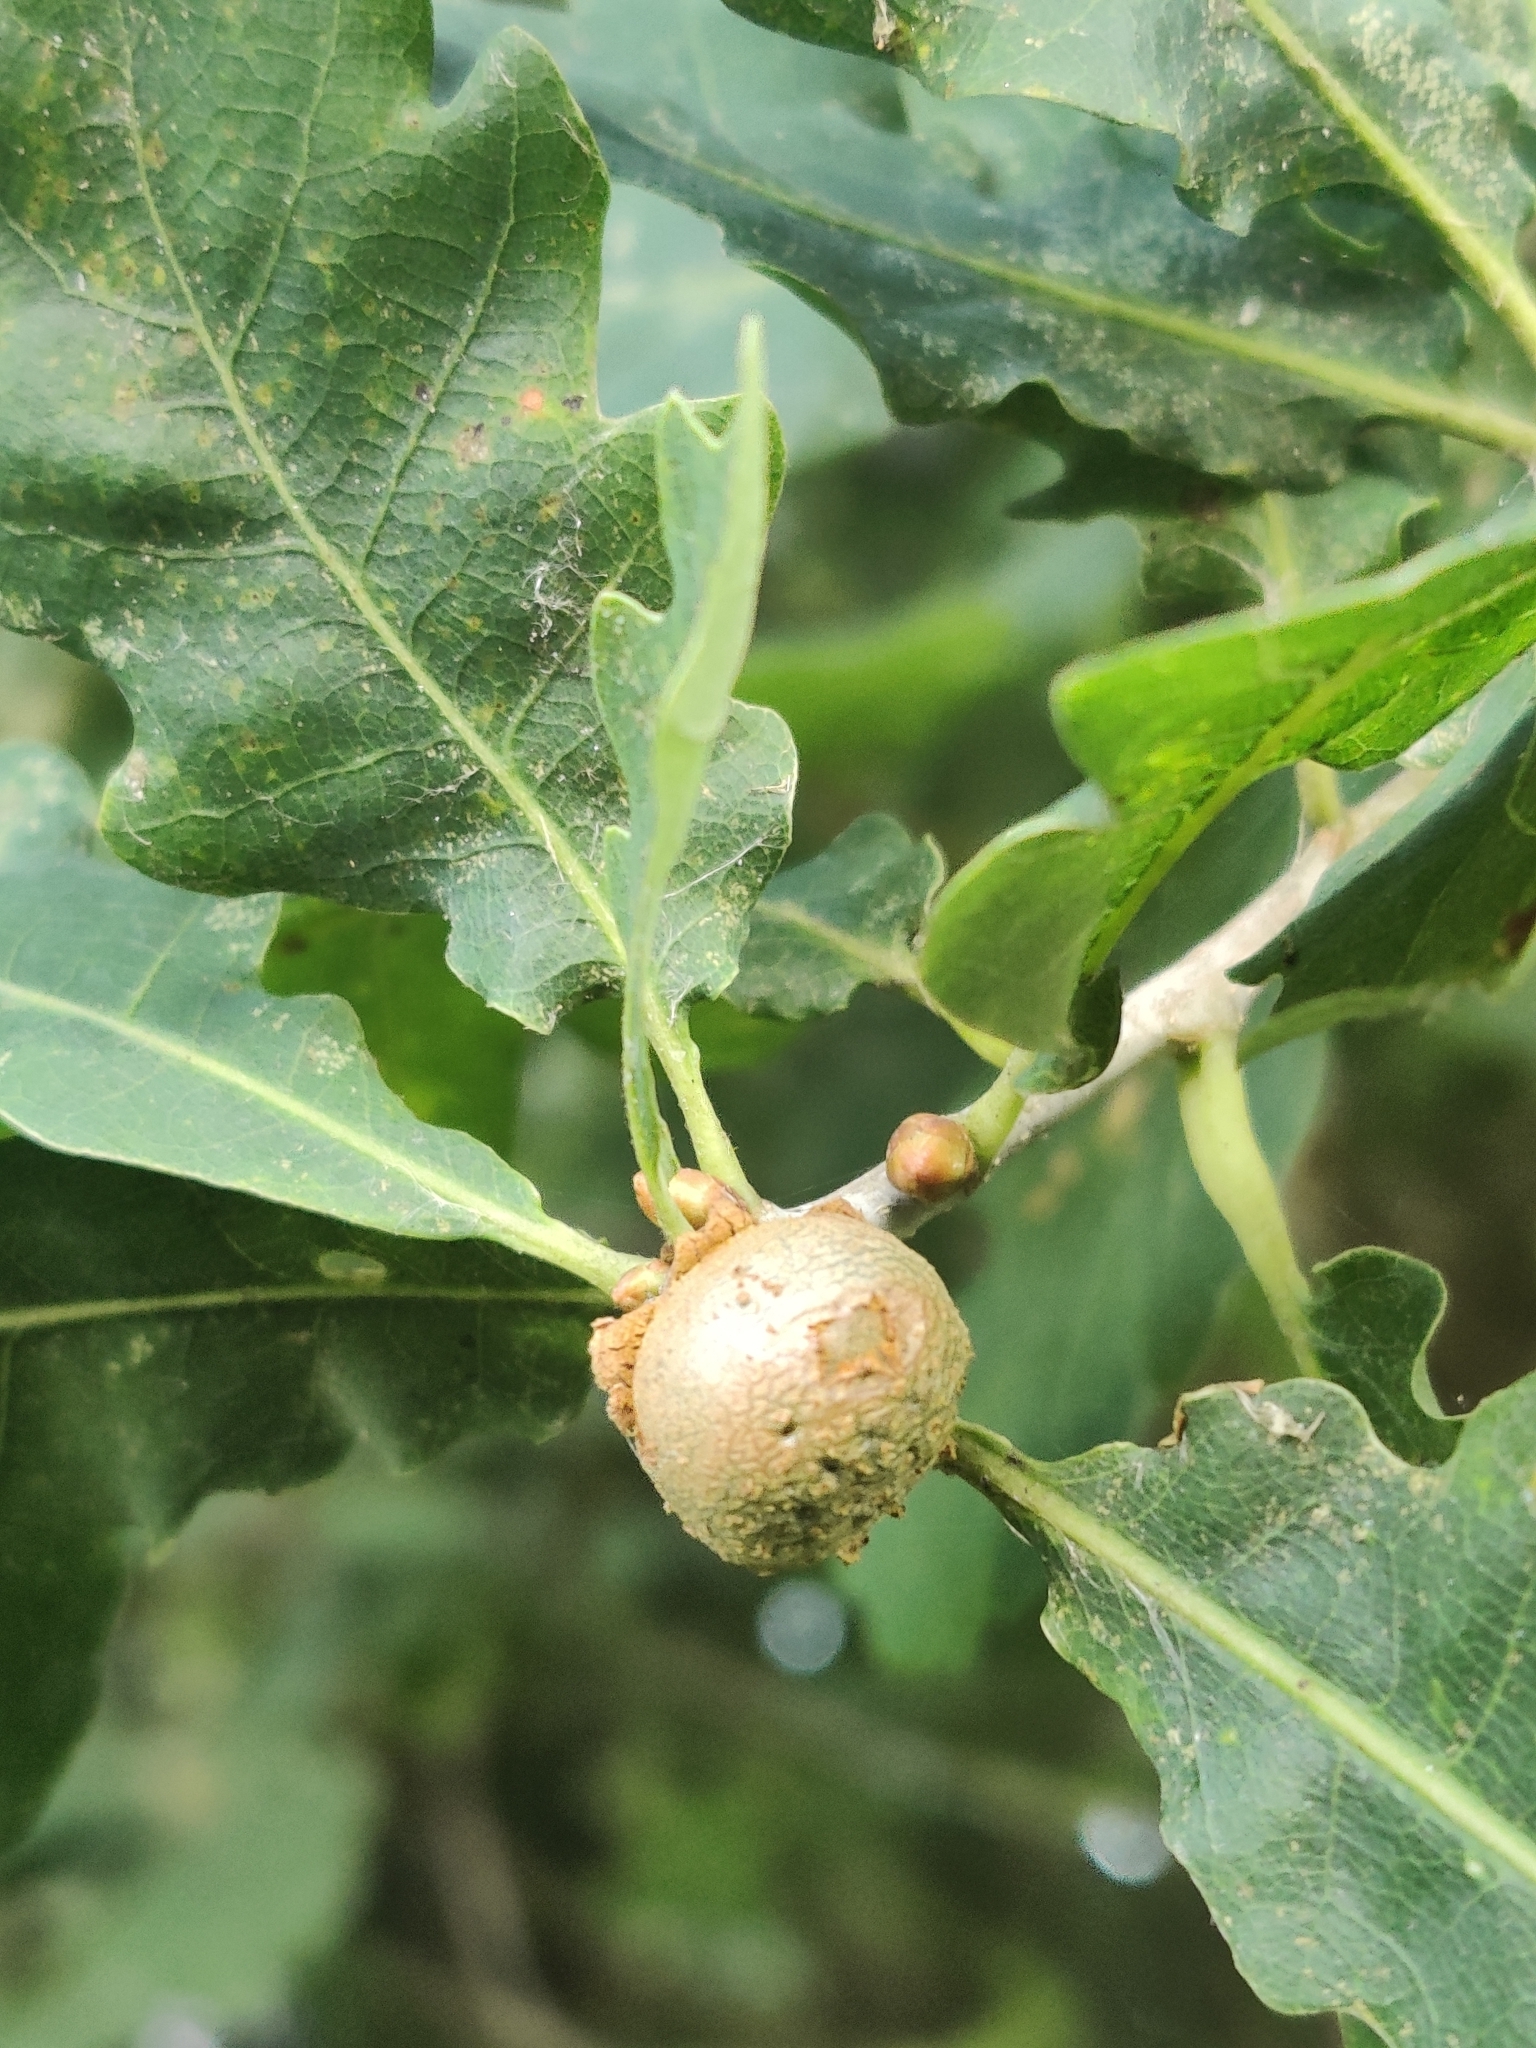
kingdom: Animalia
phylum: Arthropoda
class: Insecta
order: Hymenoptera
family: Cynipidae
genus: Andricus
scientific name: Andricus lignicolus
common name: Cola-nut gall
